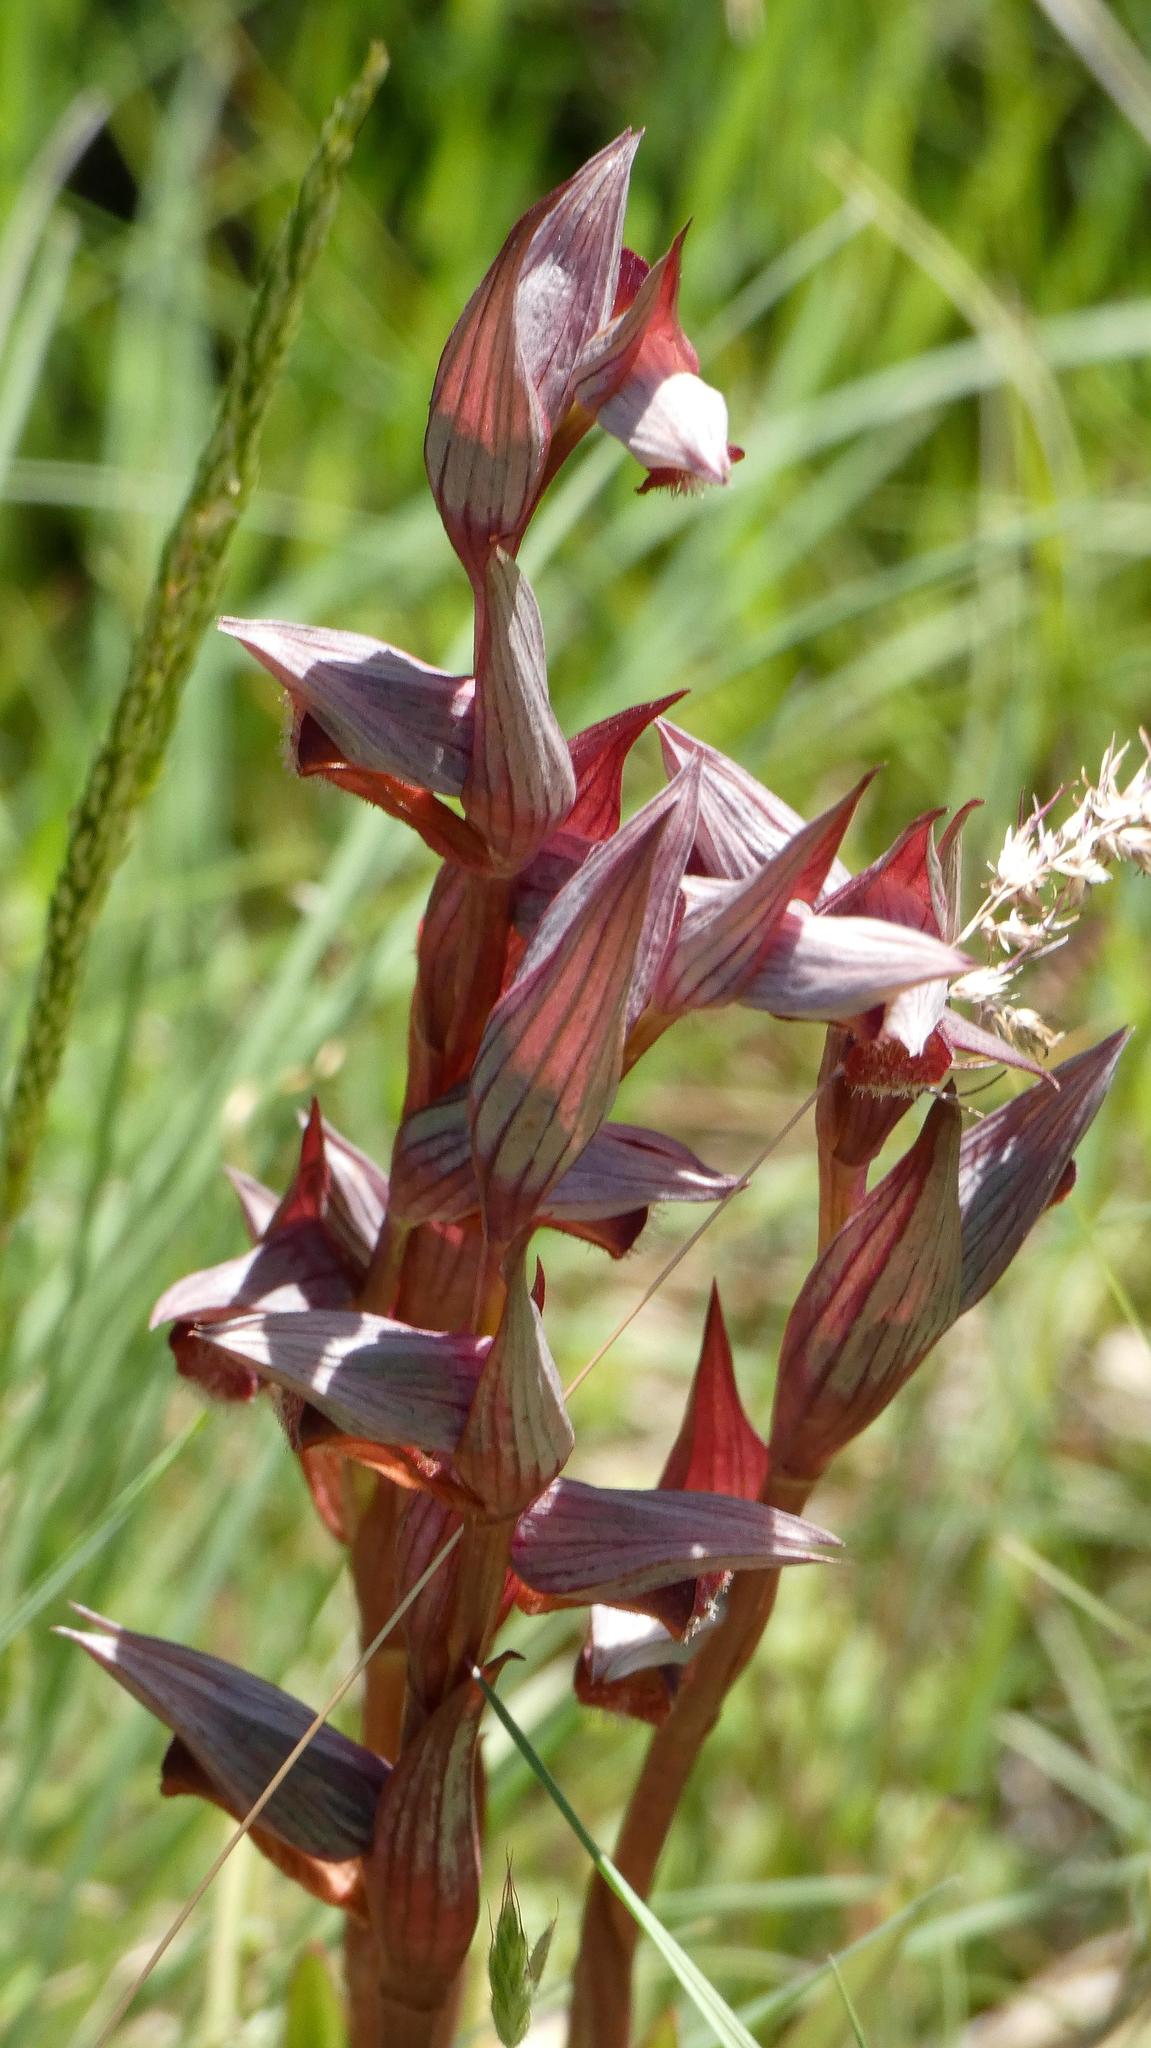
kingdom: Plantae
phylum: Tracheophyta
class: Liliopsida
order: Asparagales
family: Orchidaceae
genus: Serapias
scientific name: Serapias vomeracea
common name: Long-lipped tongue-orchid
